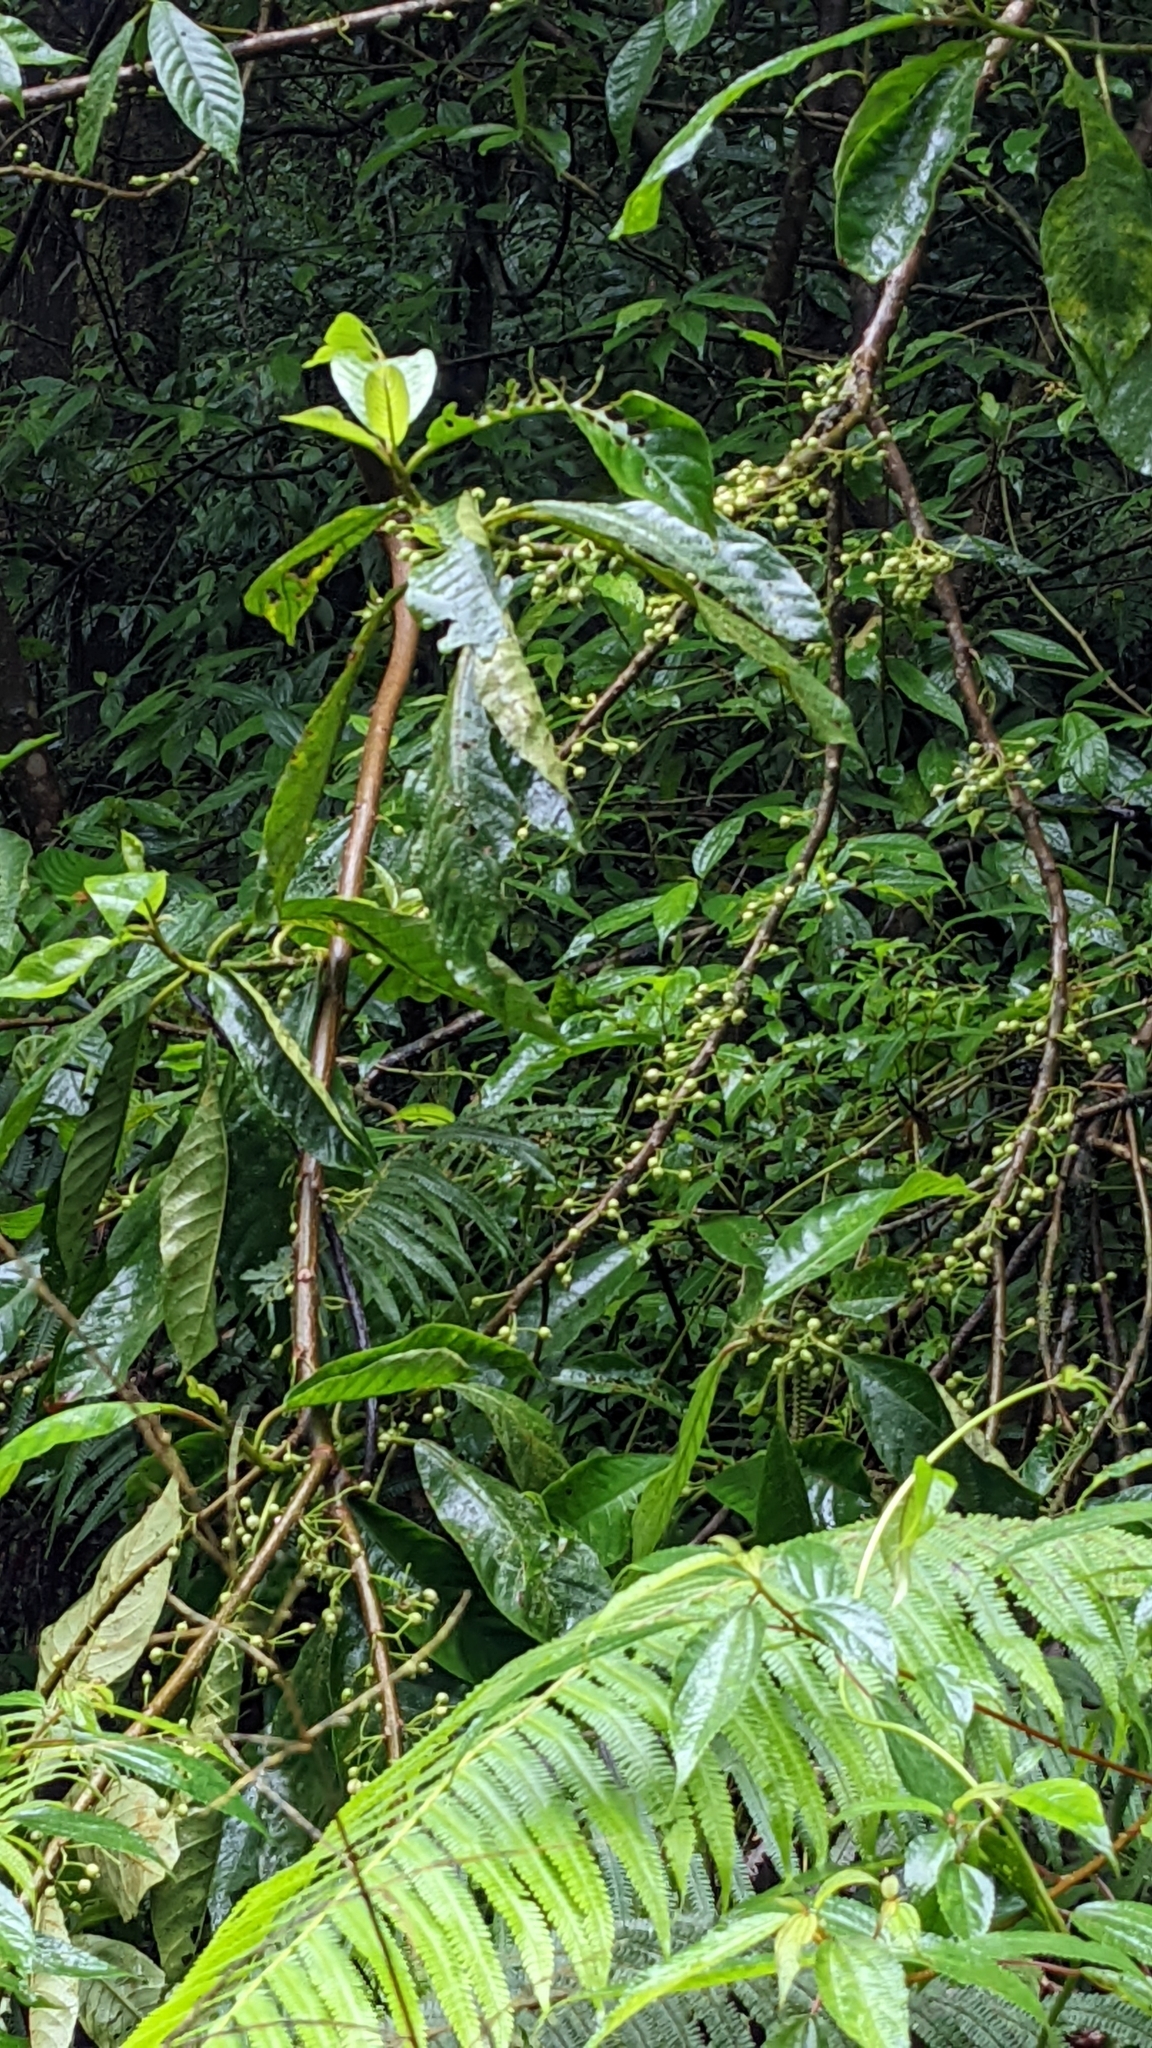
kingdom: Plantae
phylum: Tracheophyta
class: Magnoliopsida
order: Ericales
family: Actinidiaceae
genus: Saurauia
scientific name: Saurauia tristyla
